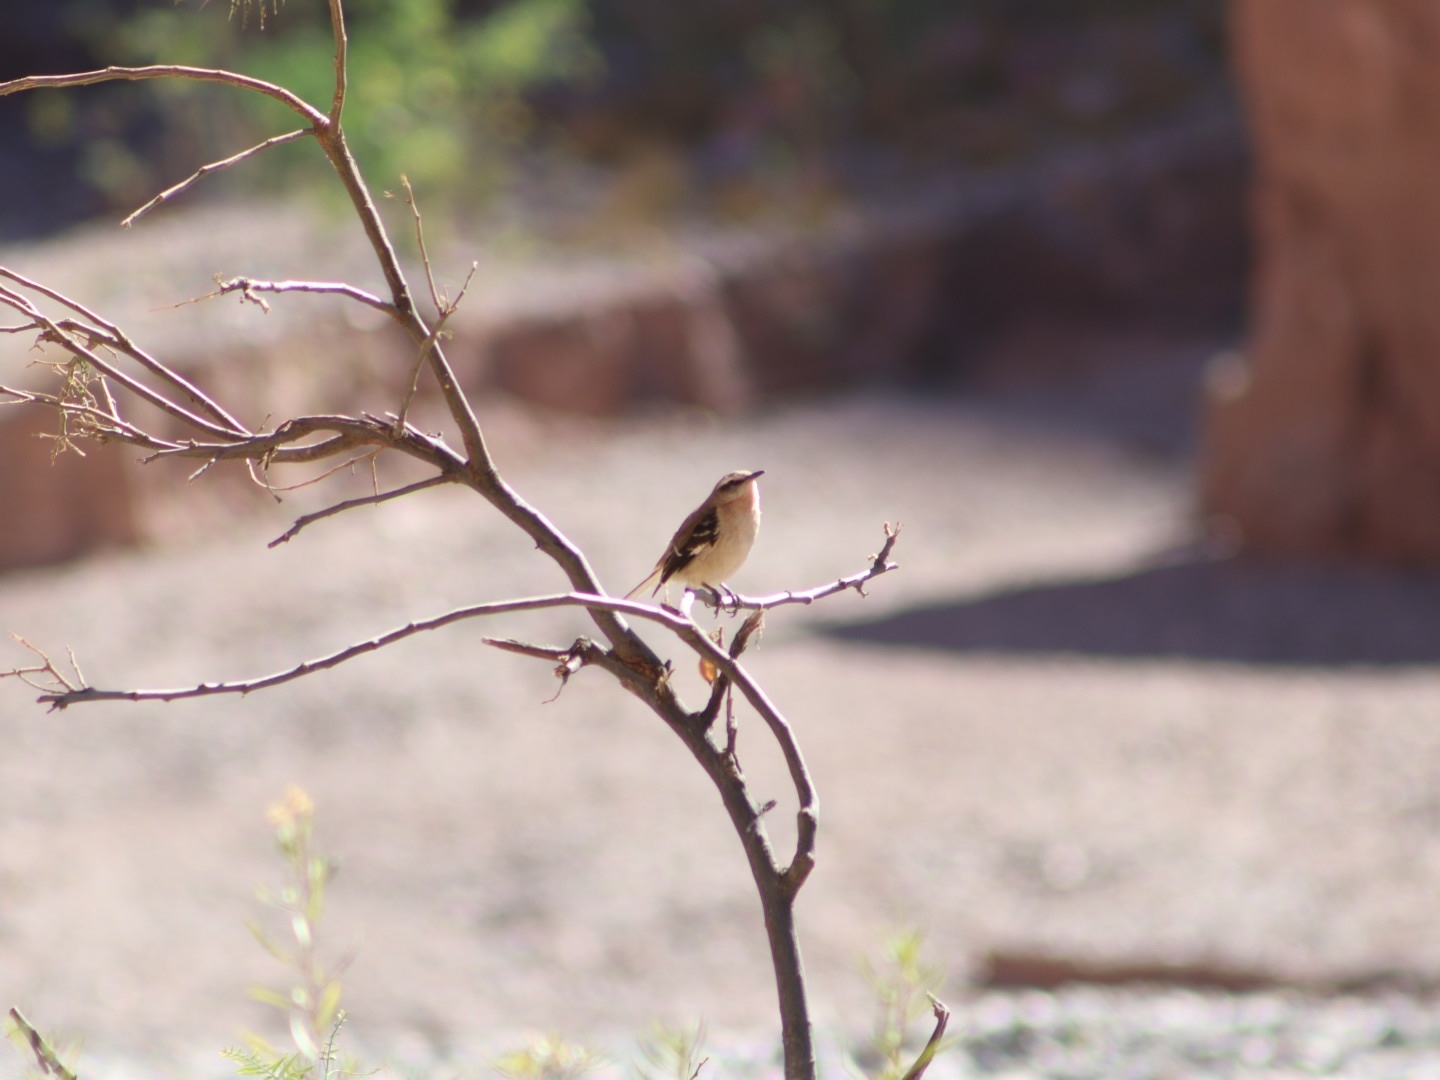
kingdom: Animalia
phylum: Chordata
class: Aves
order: Passeriformes
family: Mimidae
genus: Mimus
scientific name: Mimus dorsalis
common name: Brown-backed mockingbird
